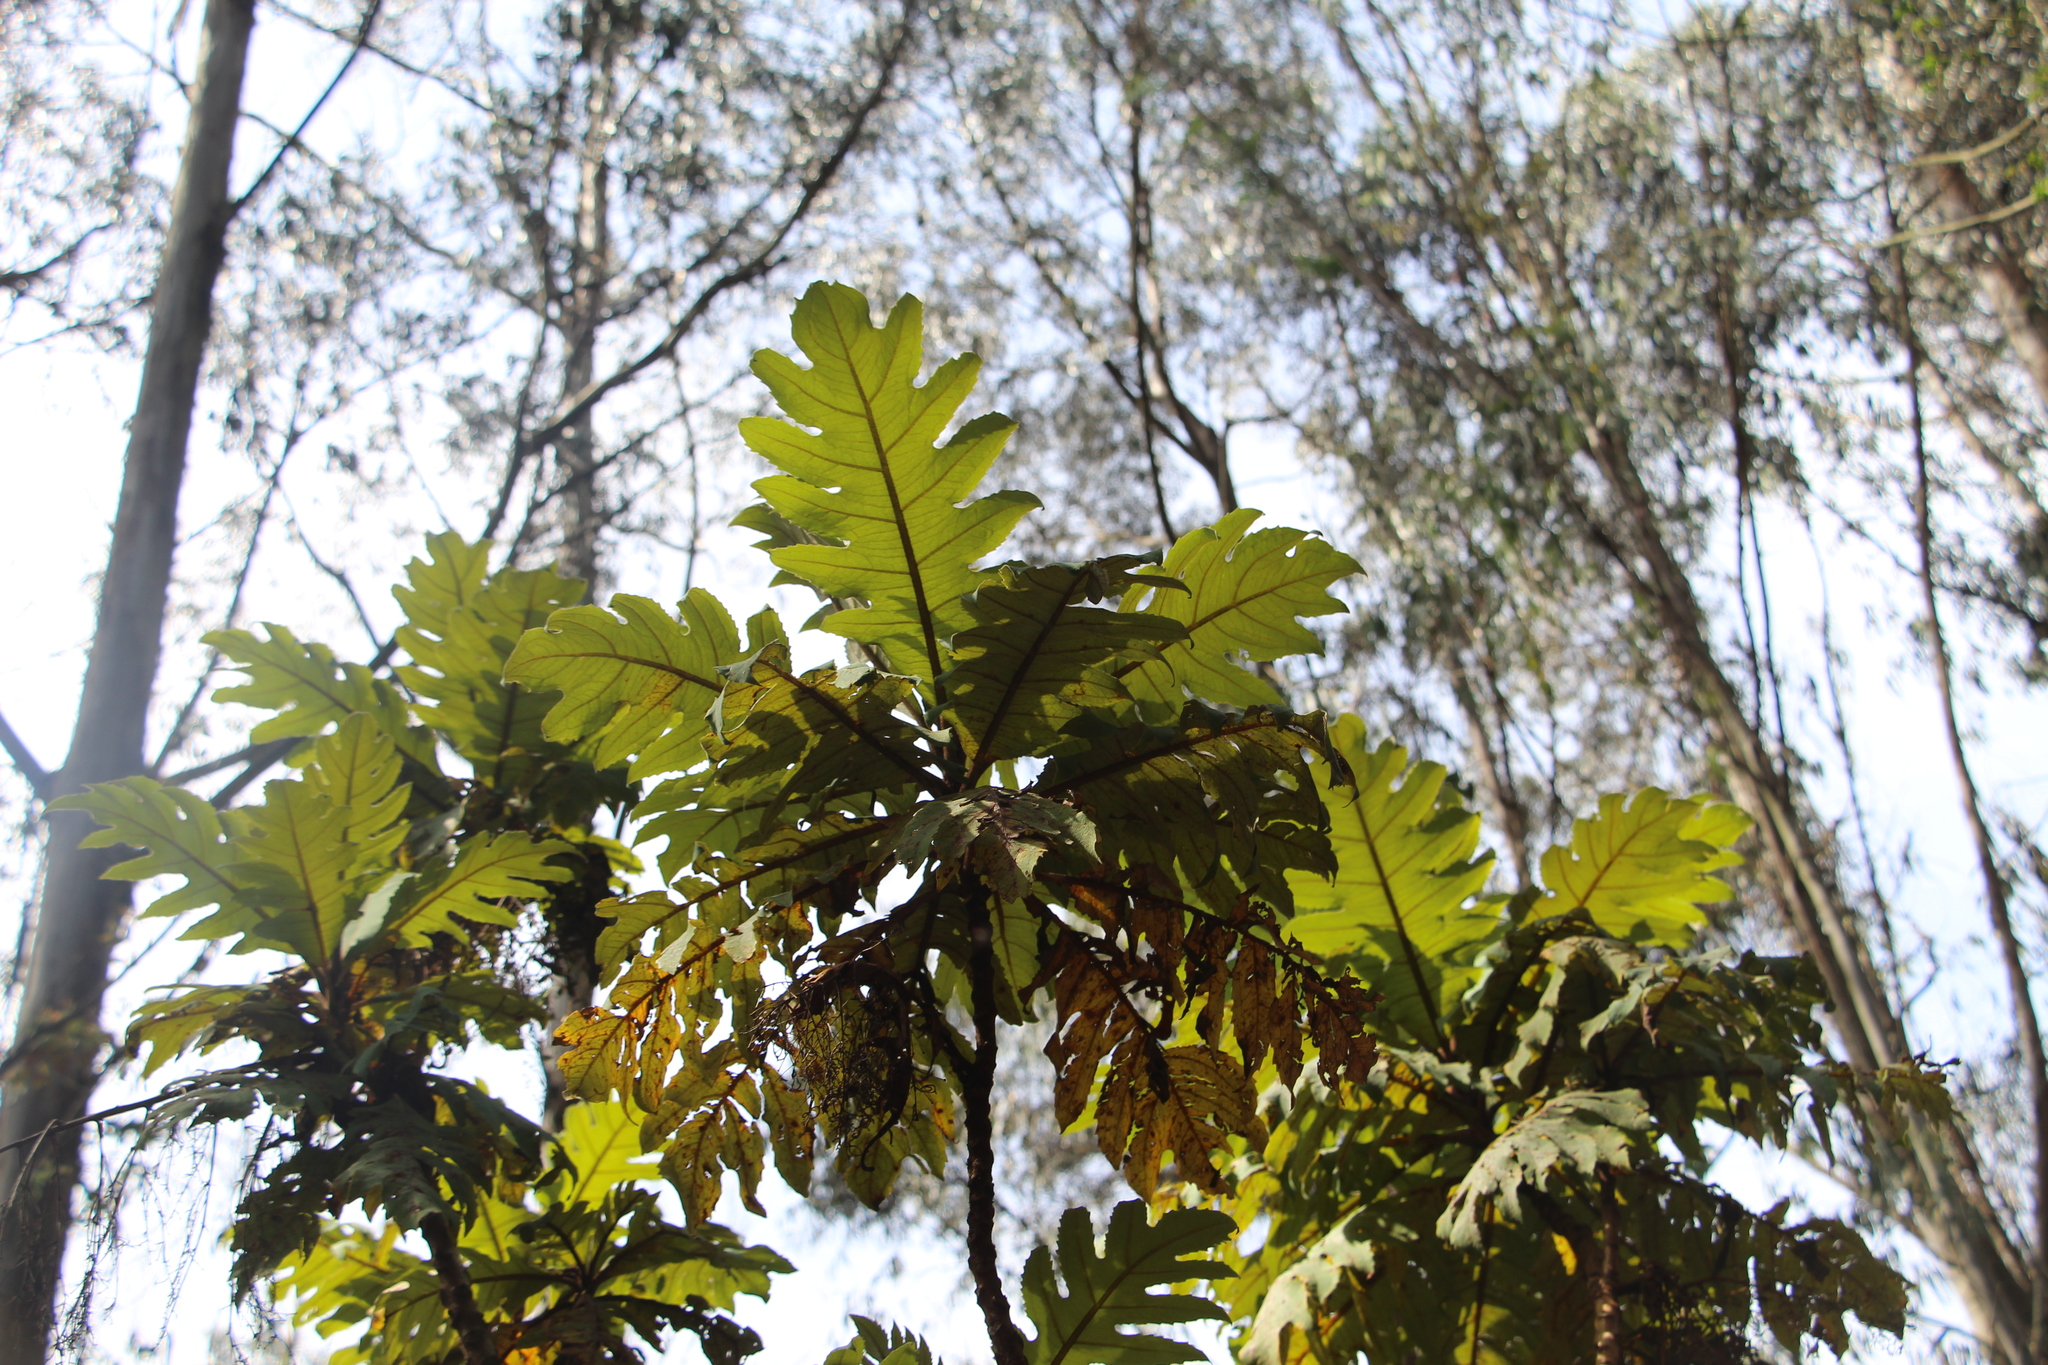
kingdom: Plantae
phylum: Tracheophyta
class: Magnoliopsida
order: Ranunculales
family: Papaveraceae
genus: Bocconia
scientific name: Bocconia frutescens
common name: Tree poppy
